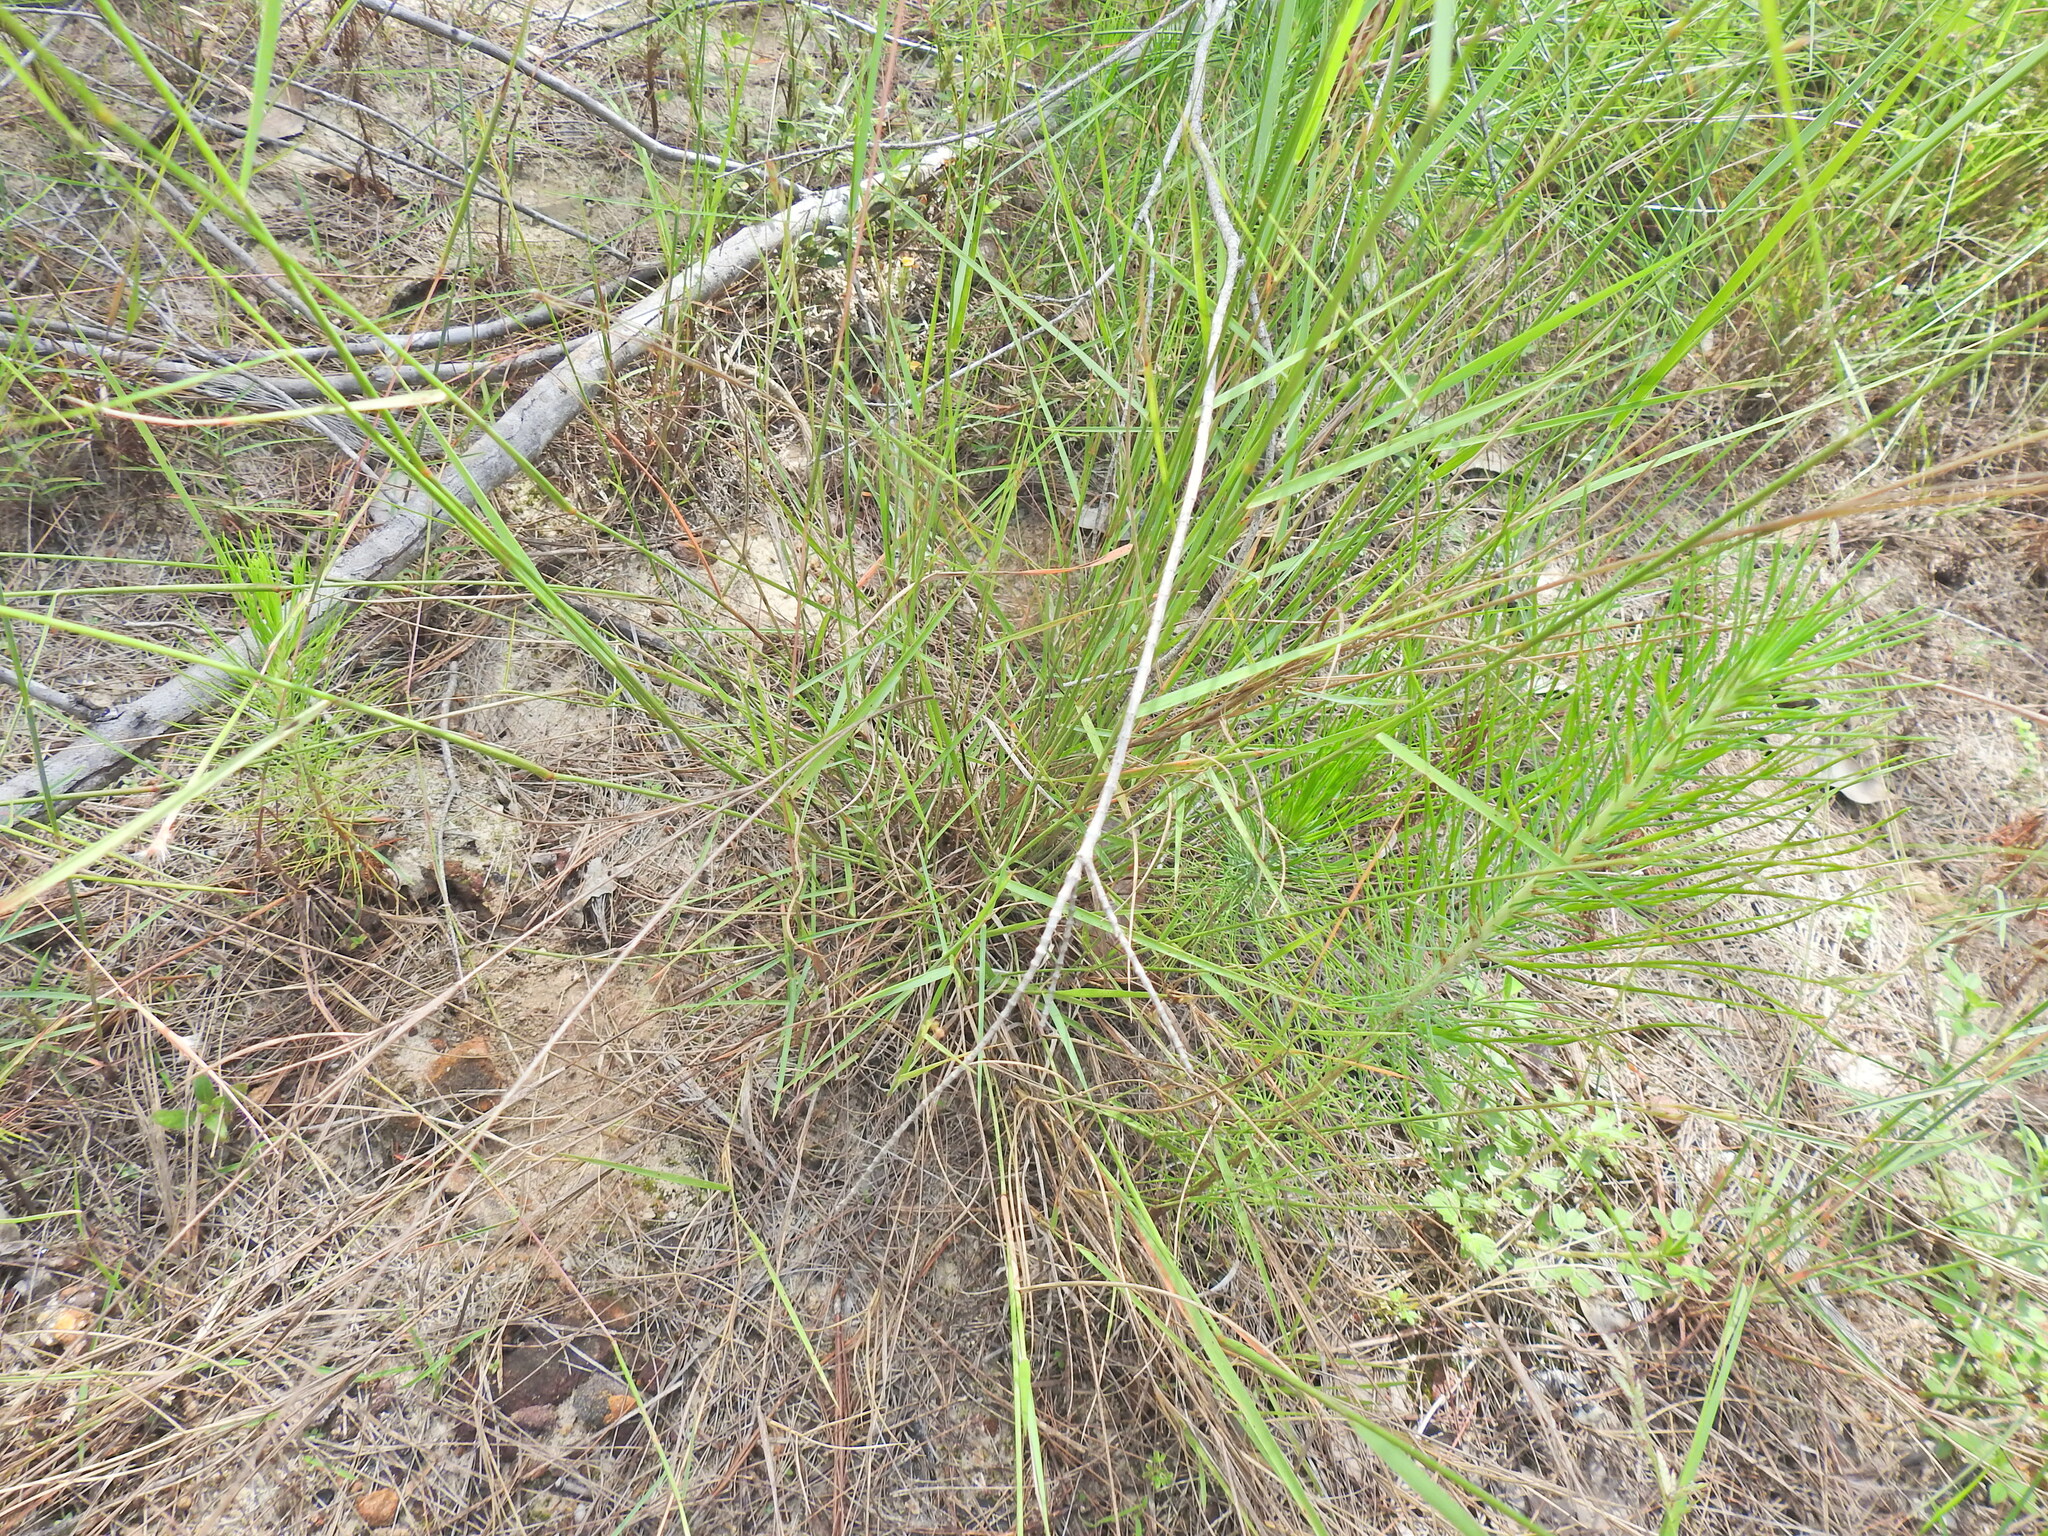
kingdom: Plantae
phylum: Tracheophyta
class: Liliopsida
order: Poales
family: Poaceae
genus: Eriachne
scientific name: Eriachne pallescens
